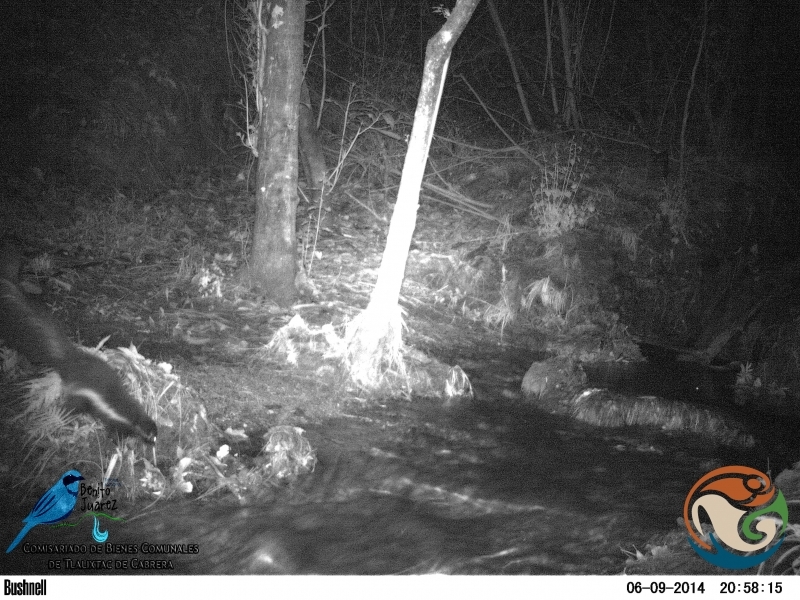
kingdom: Animalia
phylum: Chordata
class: Mammalia
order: Carnivora
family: Mephitidae
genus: Mephitis
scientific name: Mephitis macroura
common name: Hooded skunk
